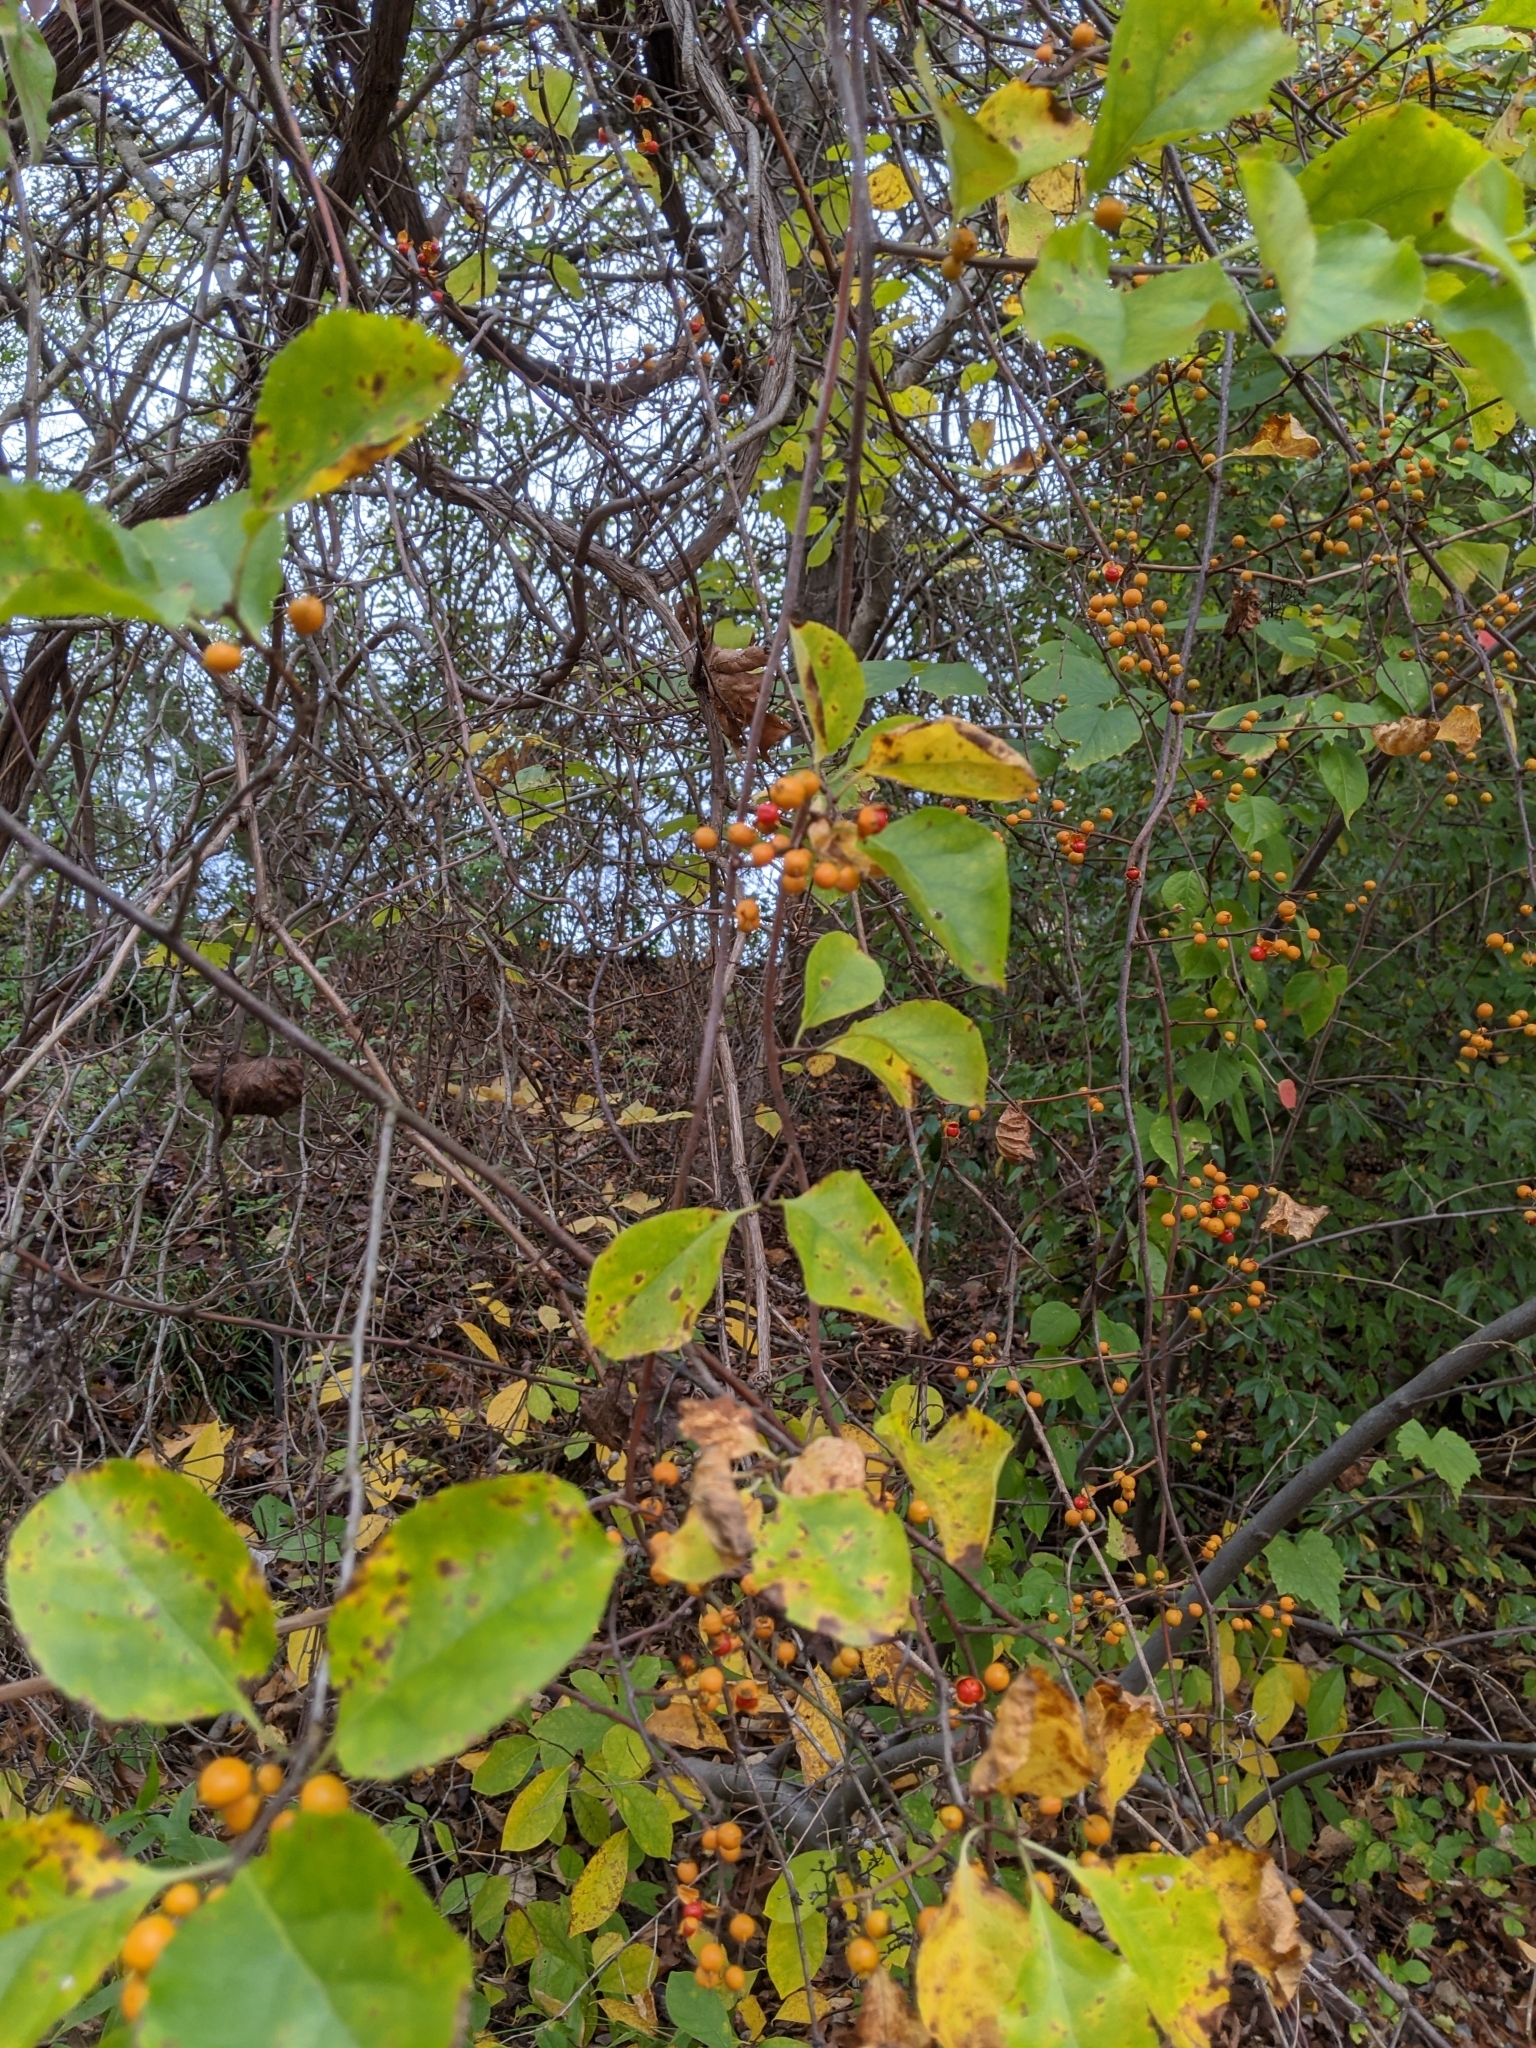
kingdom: Plantae
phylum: Tracheophyta
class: Magnoliopsida
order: Celastrales
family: Celastraceae
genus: Celastrus
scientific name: Celastrus orbiculatus
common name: Oriental bittersweet
